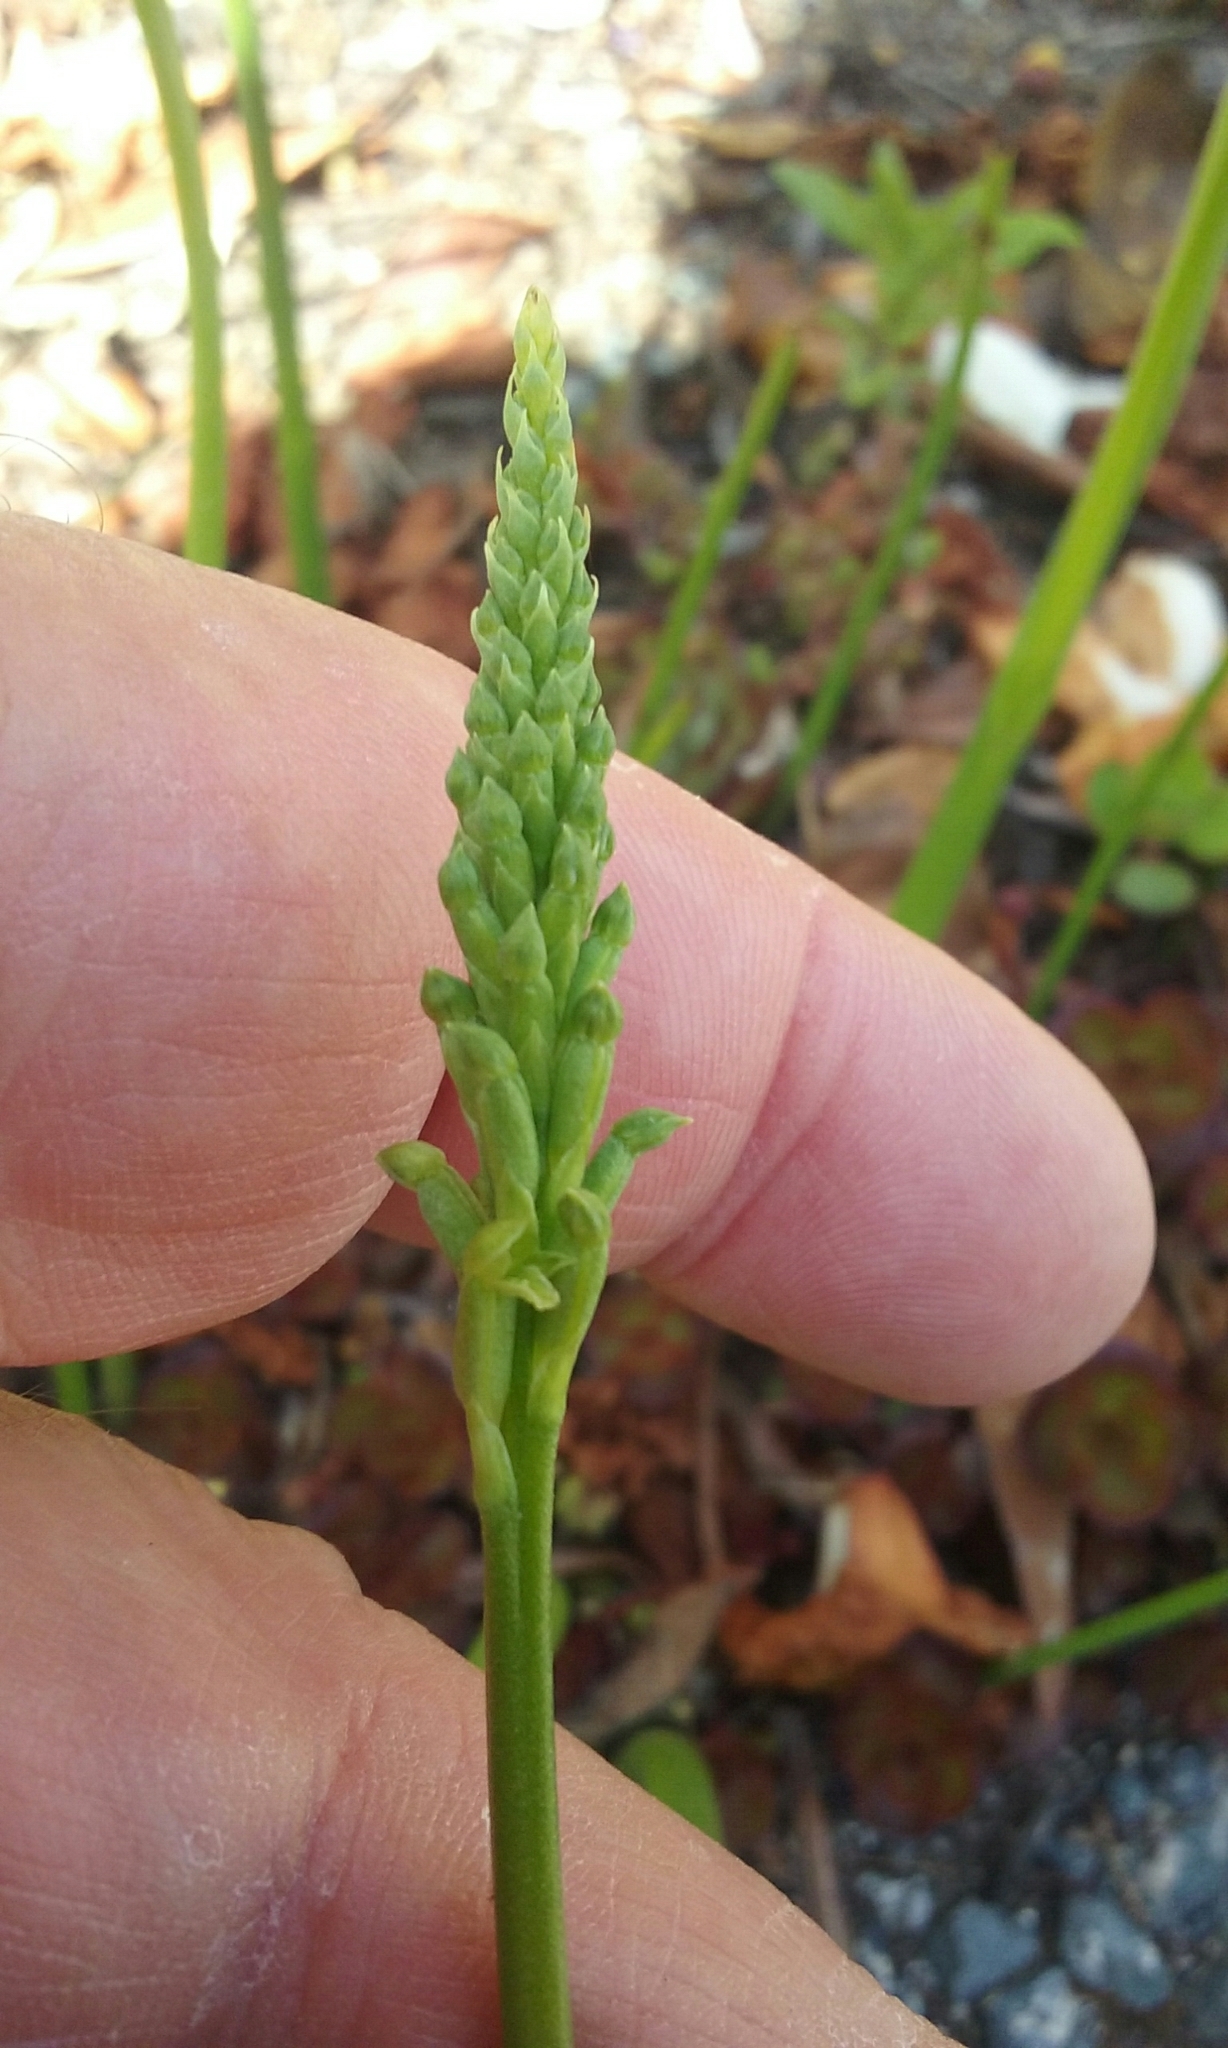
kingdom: Plantae
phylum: Tracheophyta
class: Liliopsida
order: Asparagales
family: Orchidaceae
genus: Microtis
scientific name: Microtis unifolia
